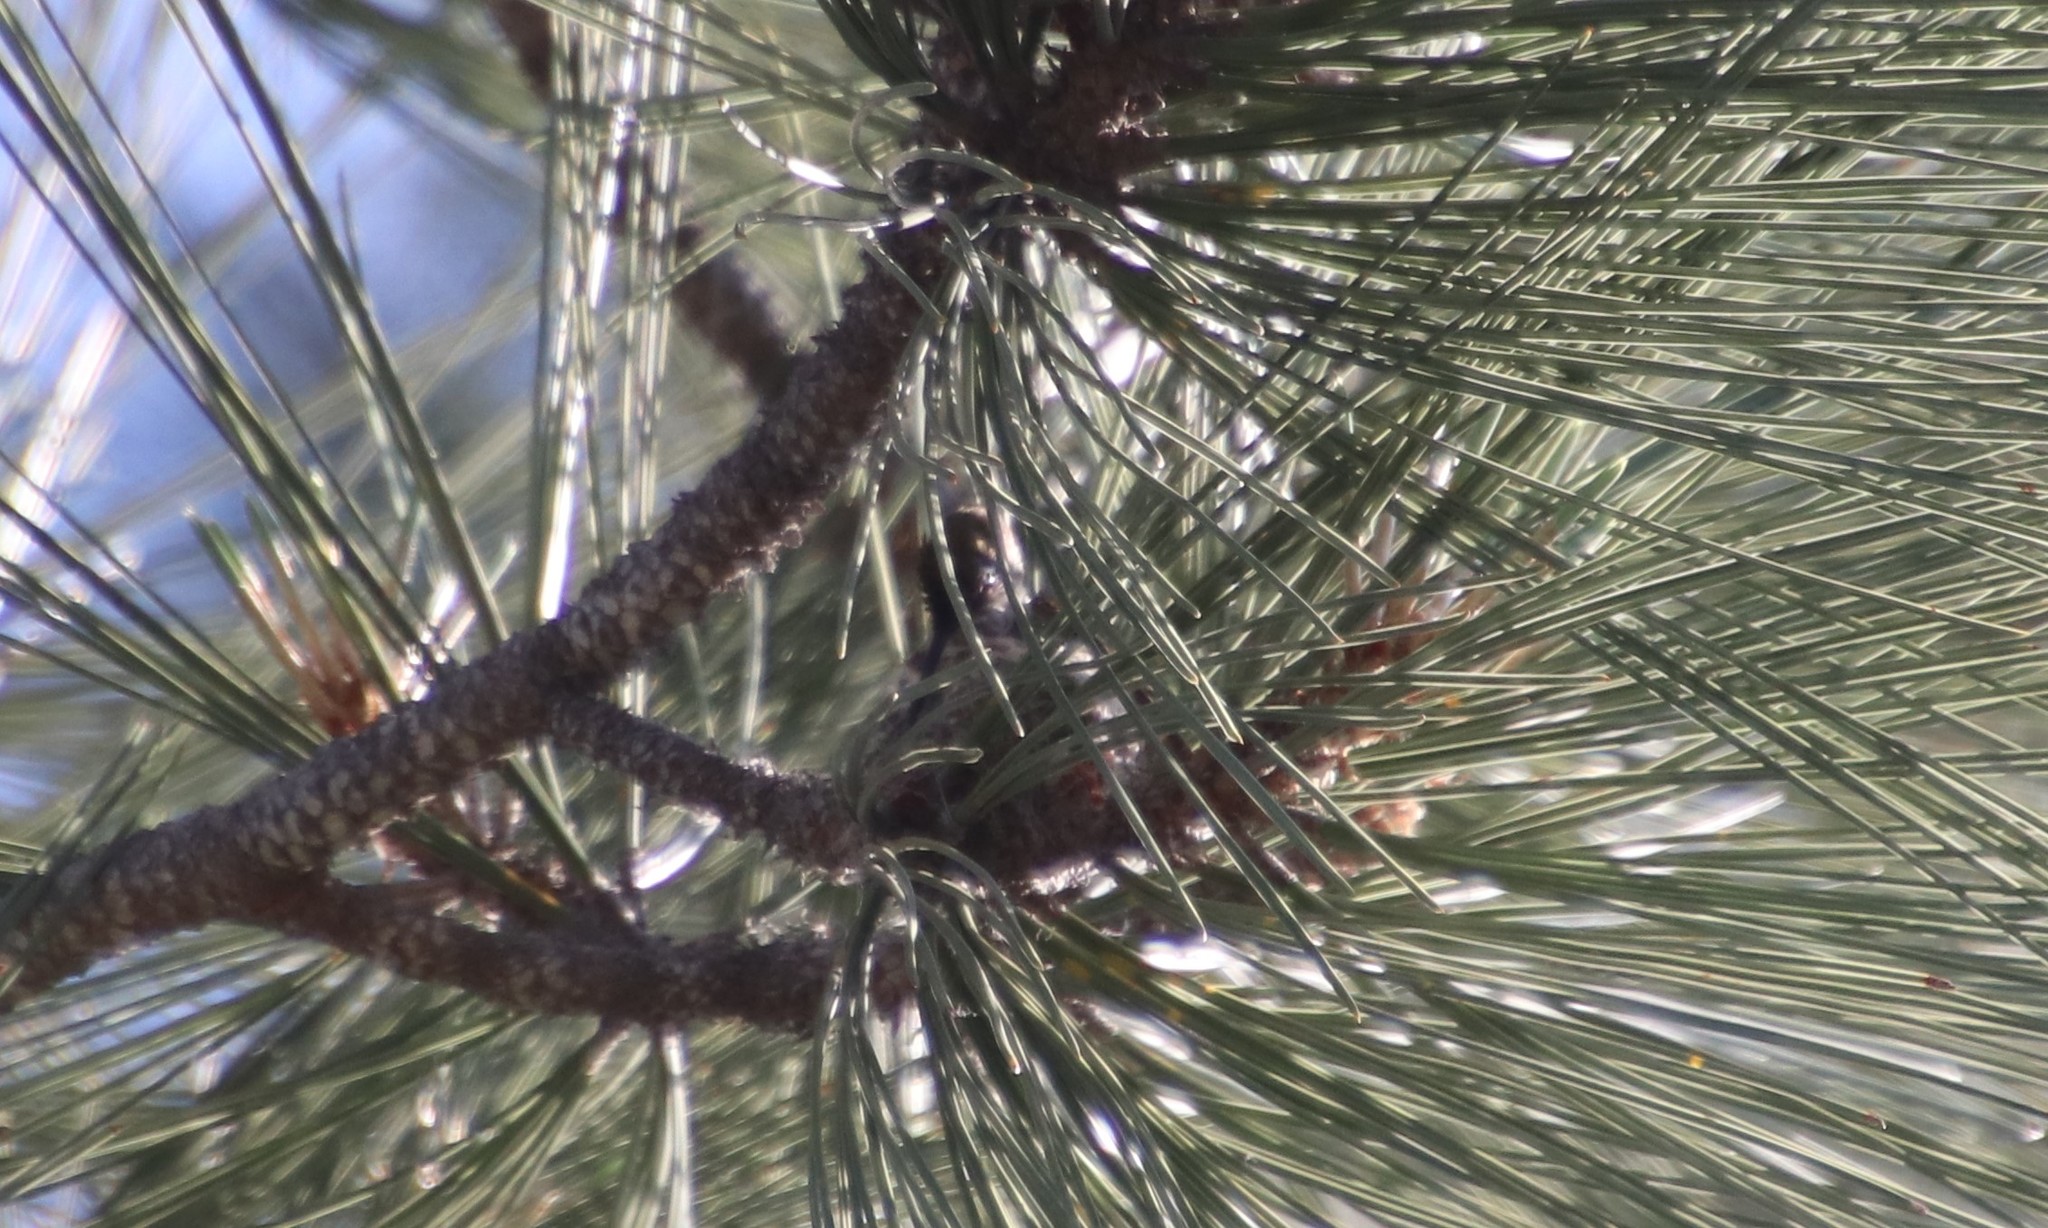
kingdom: Animalia
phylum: Chordata
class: Aves
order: Apodiformes
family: Trochilidae
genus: Calypte
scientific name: Calypte anna
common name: Anna's hummingbird
